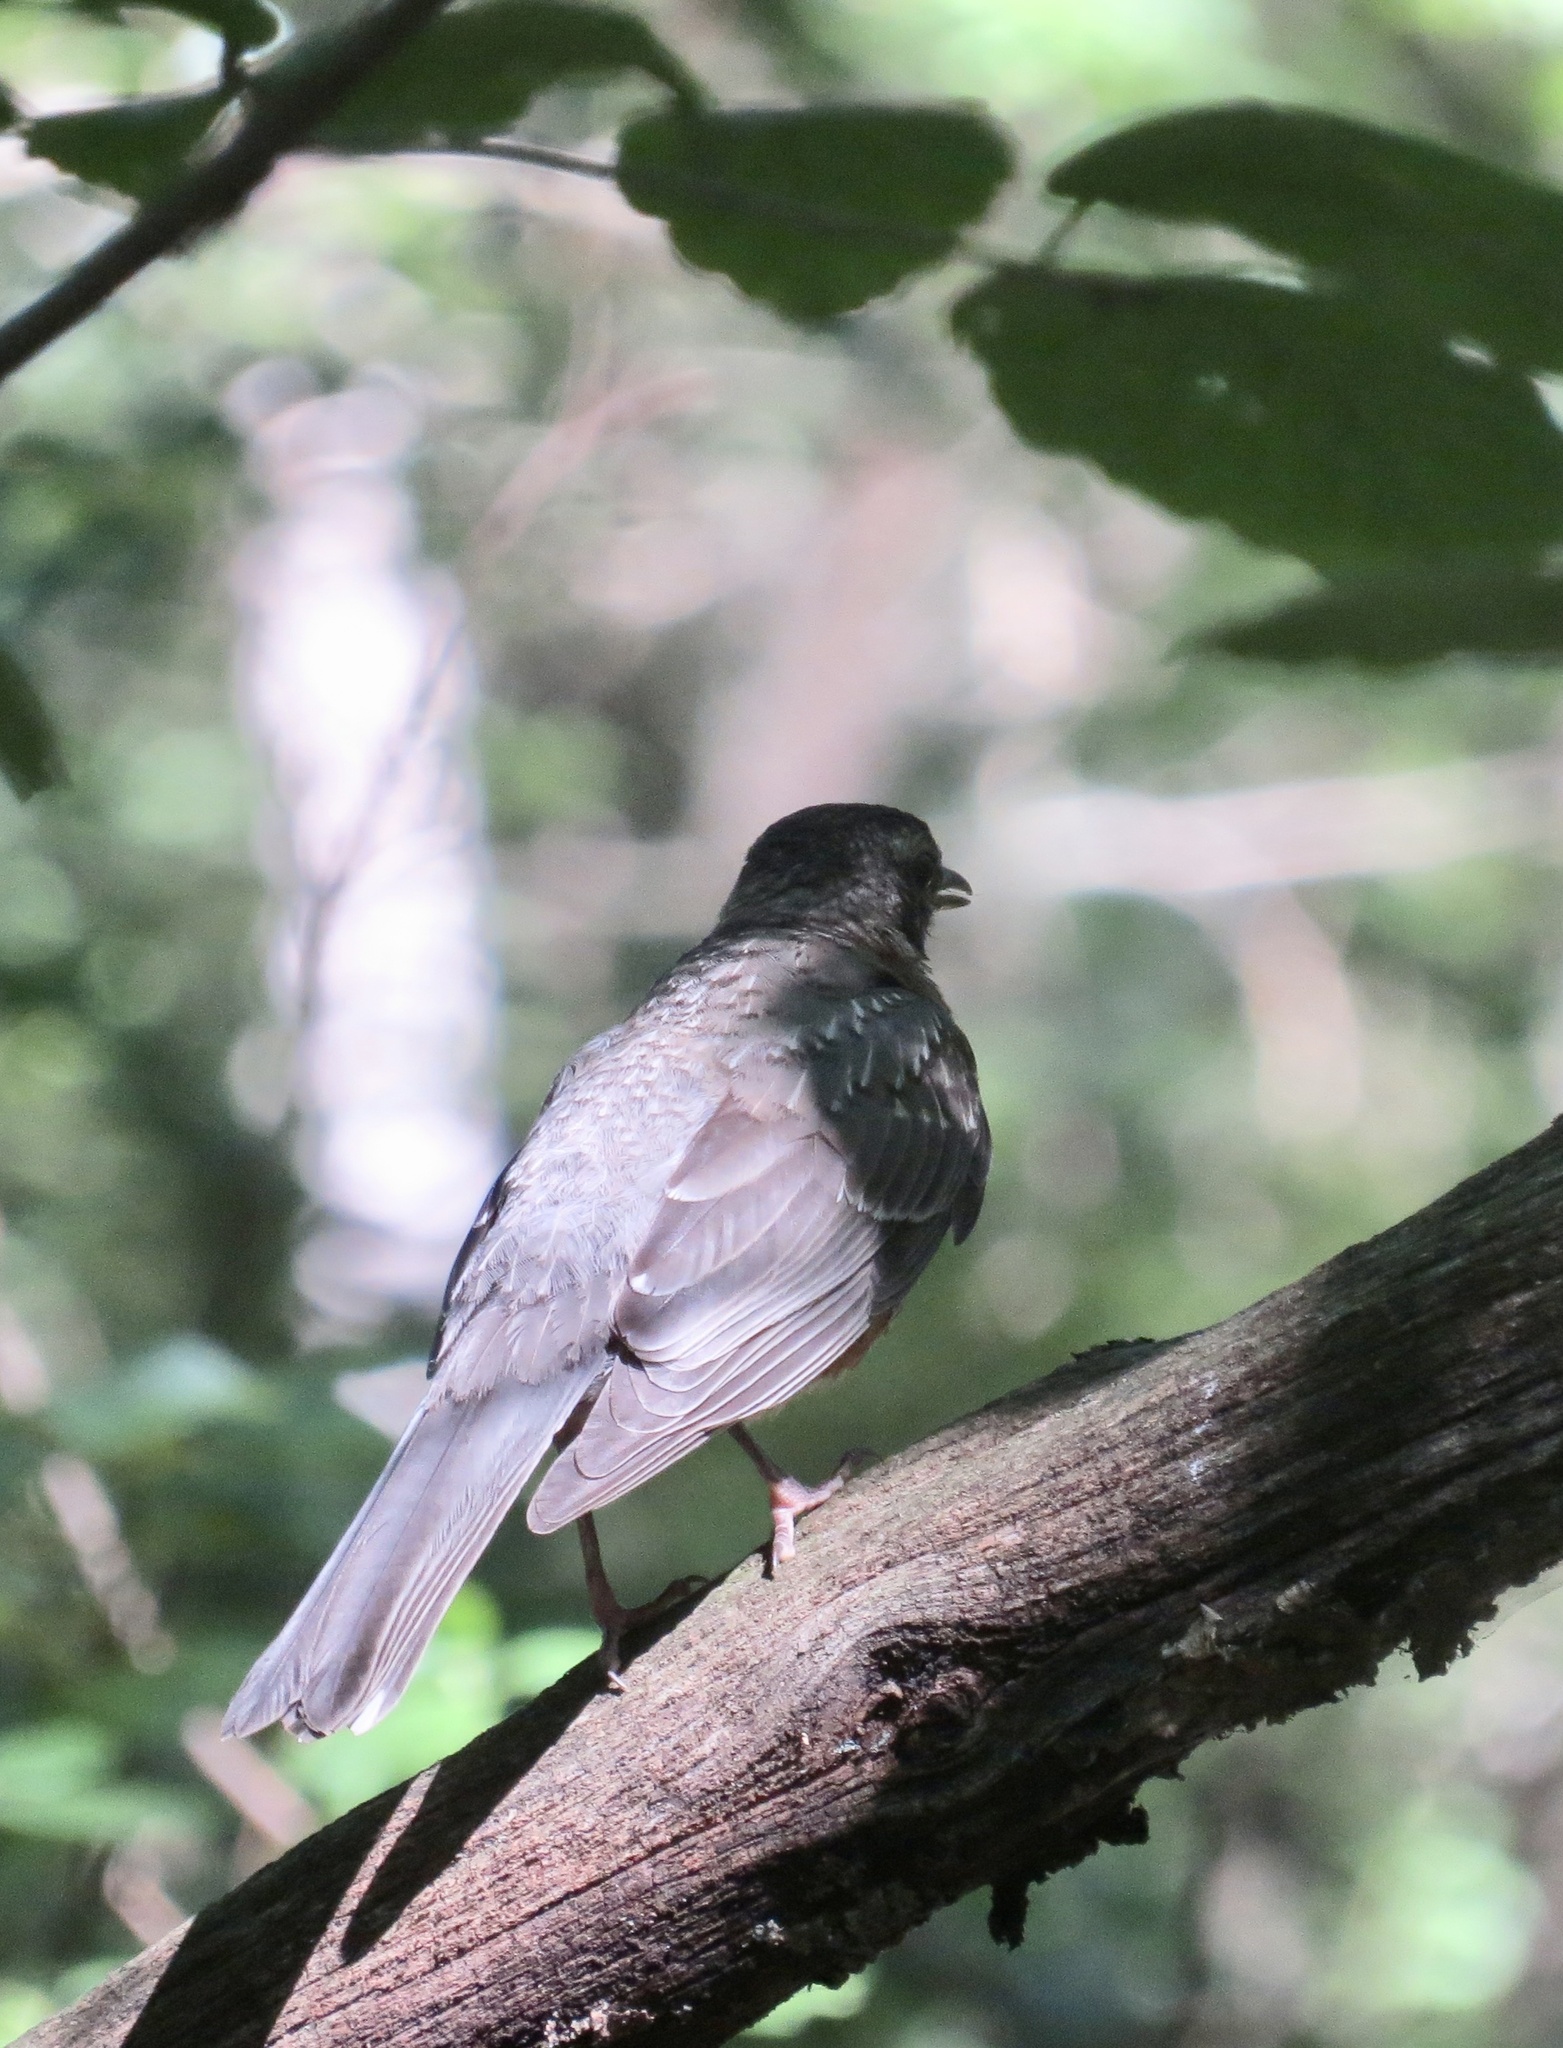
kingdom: Animalia
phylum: Chordata
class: Aves
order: Passeriformes
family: Turdidae
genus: Turdus
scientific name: Turdus migratorius
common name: American robin
